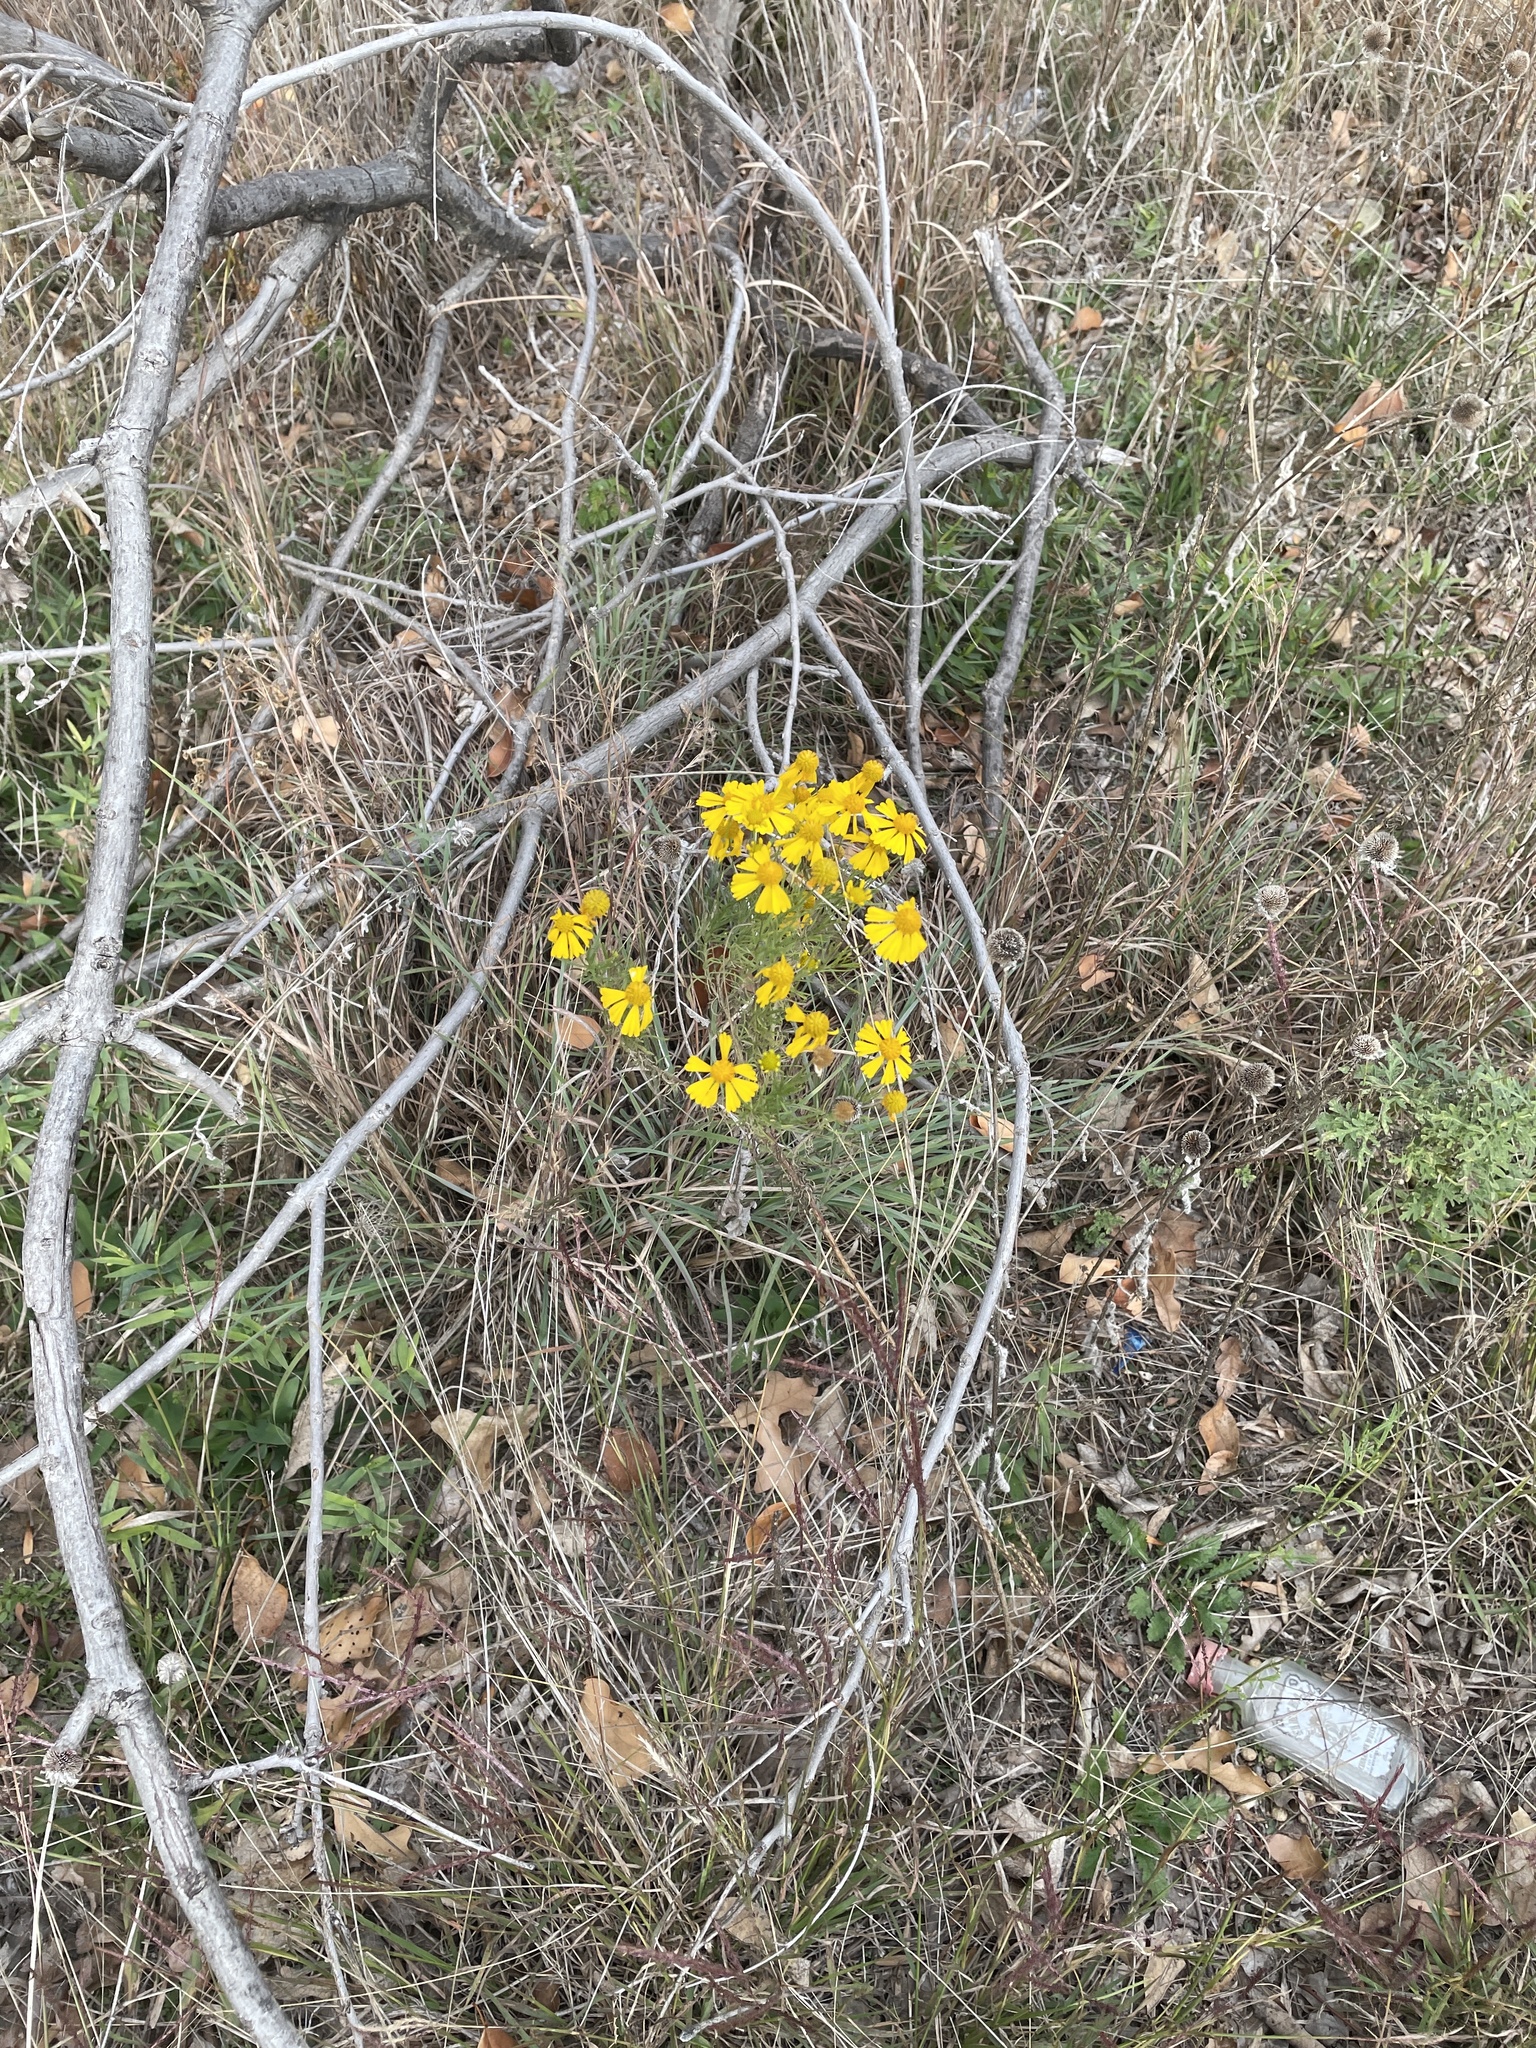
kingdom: Plantae
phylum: Tracheophyta
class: Magnoliopsida
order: Asterales
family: Asteraceae
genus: Helenium
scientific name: Helenium amarum
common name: Bitter sneezeweed
